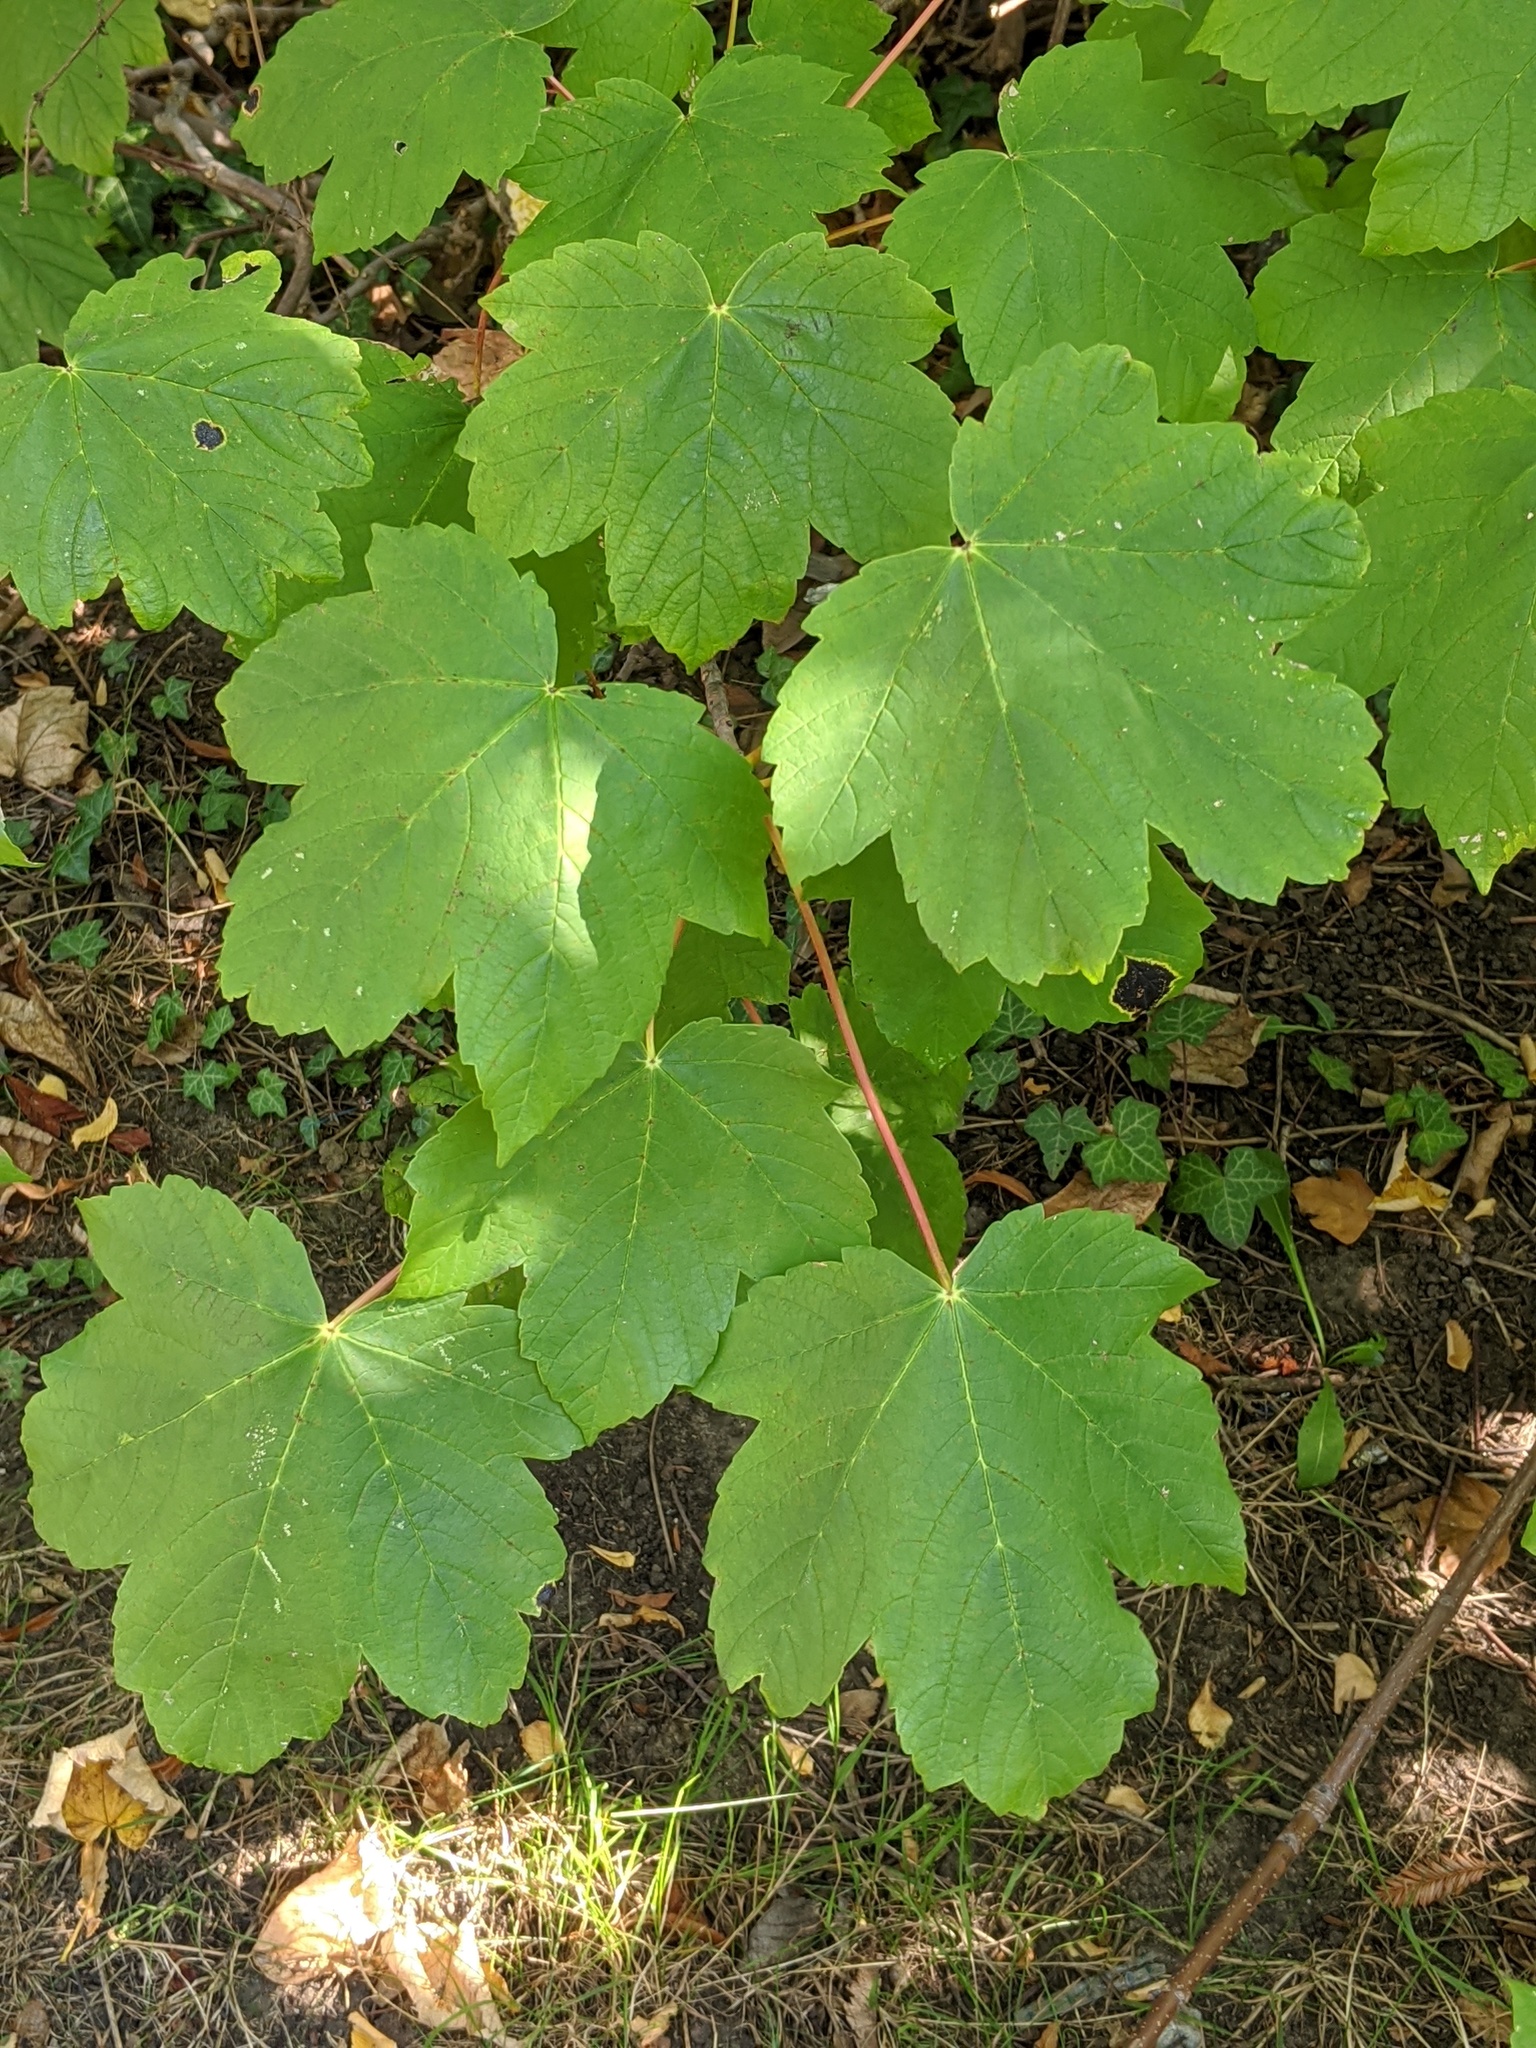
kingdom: Plantae
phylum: Tracheophyta
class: Magnoliopsida
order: Sapindales
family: Sapindaceae
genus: Acer
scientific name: Acer pseudoplatanus
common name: Sycamore
